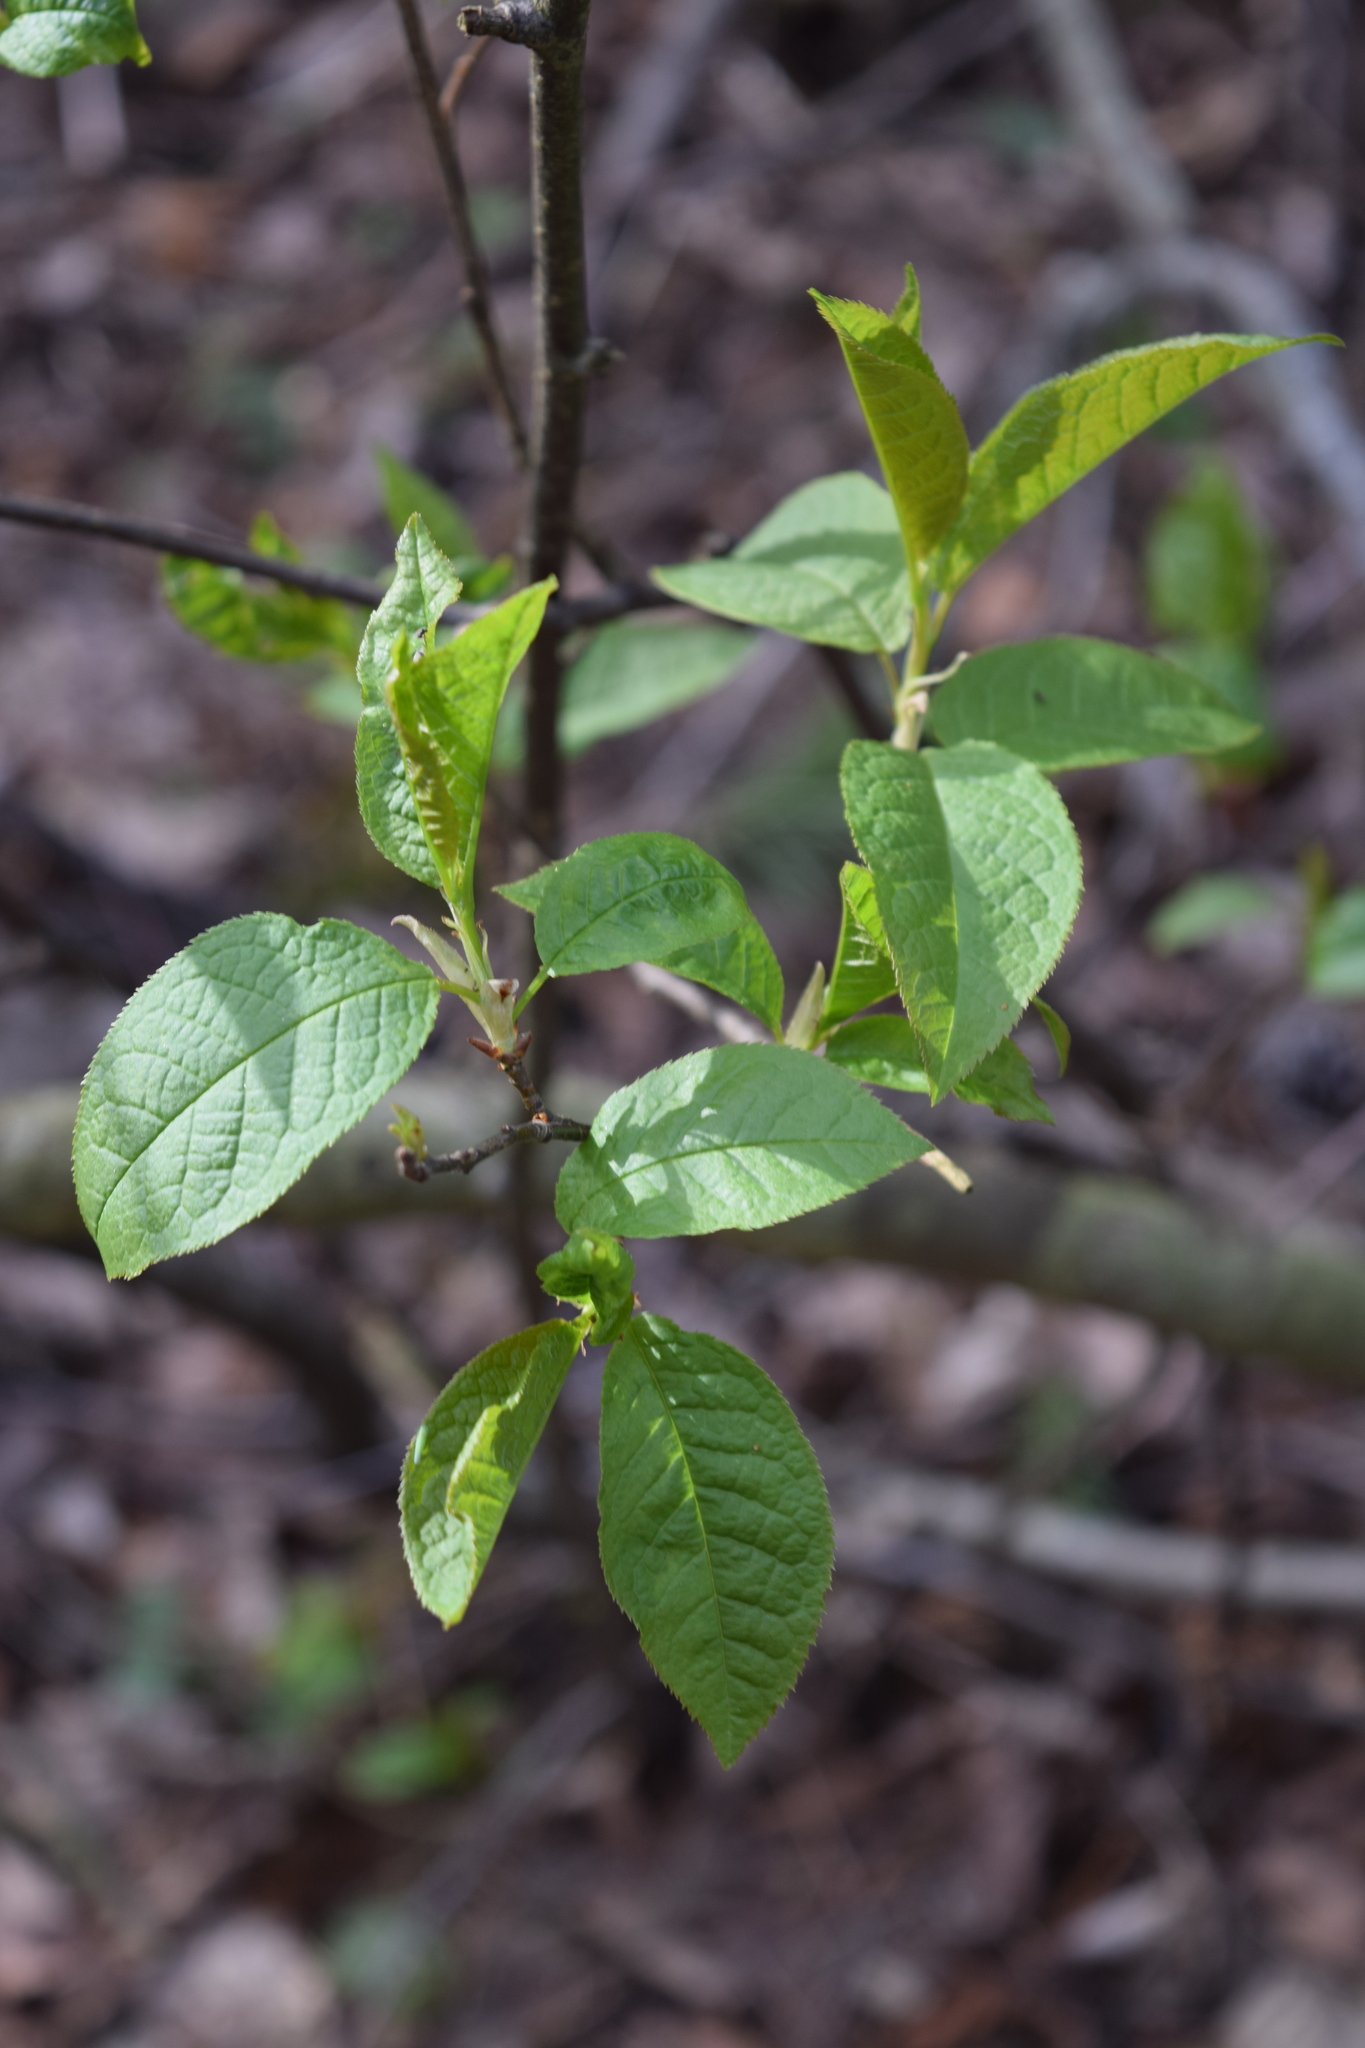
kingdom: Plantae
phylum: Tracheophyta
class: Magnoliopsida
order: Rosales
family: Rosaceae
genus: Prunus
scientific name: Prunus padus
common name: Bird cherry
